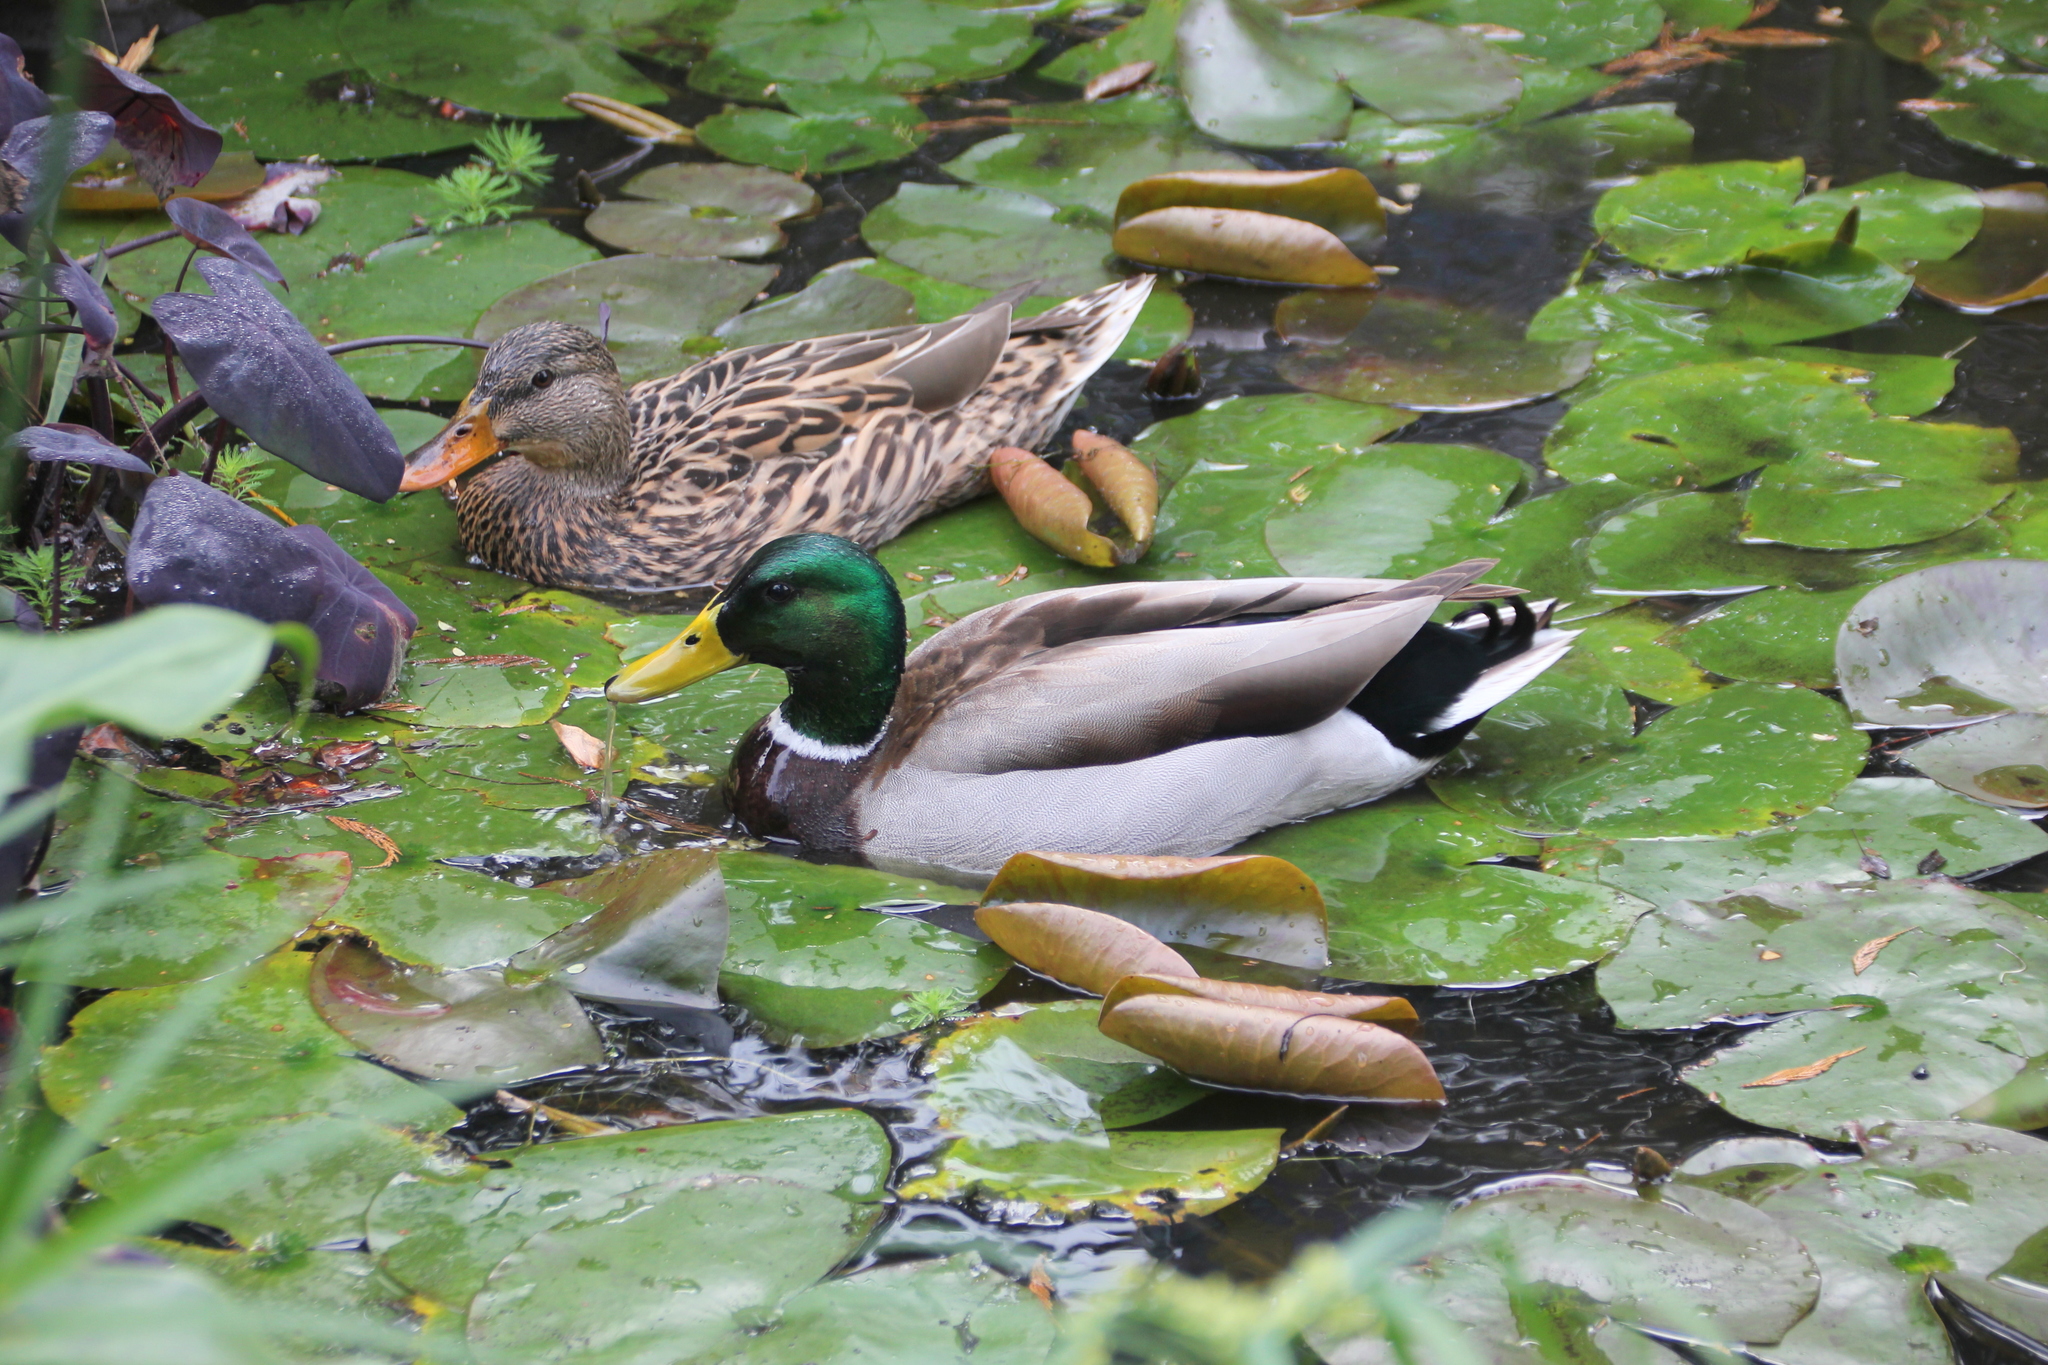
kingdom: Animalia
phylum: Chordata
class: Aves
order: Anseriformes
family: Anatidae
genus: Anas
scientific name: Anas platyrhynchos
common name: Mallard
